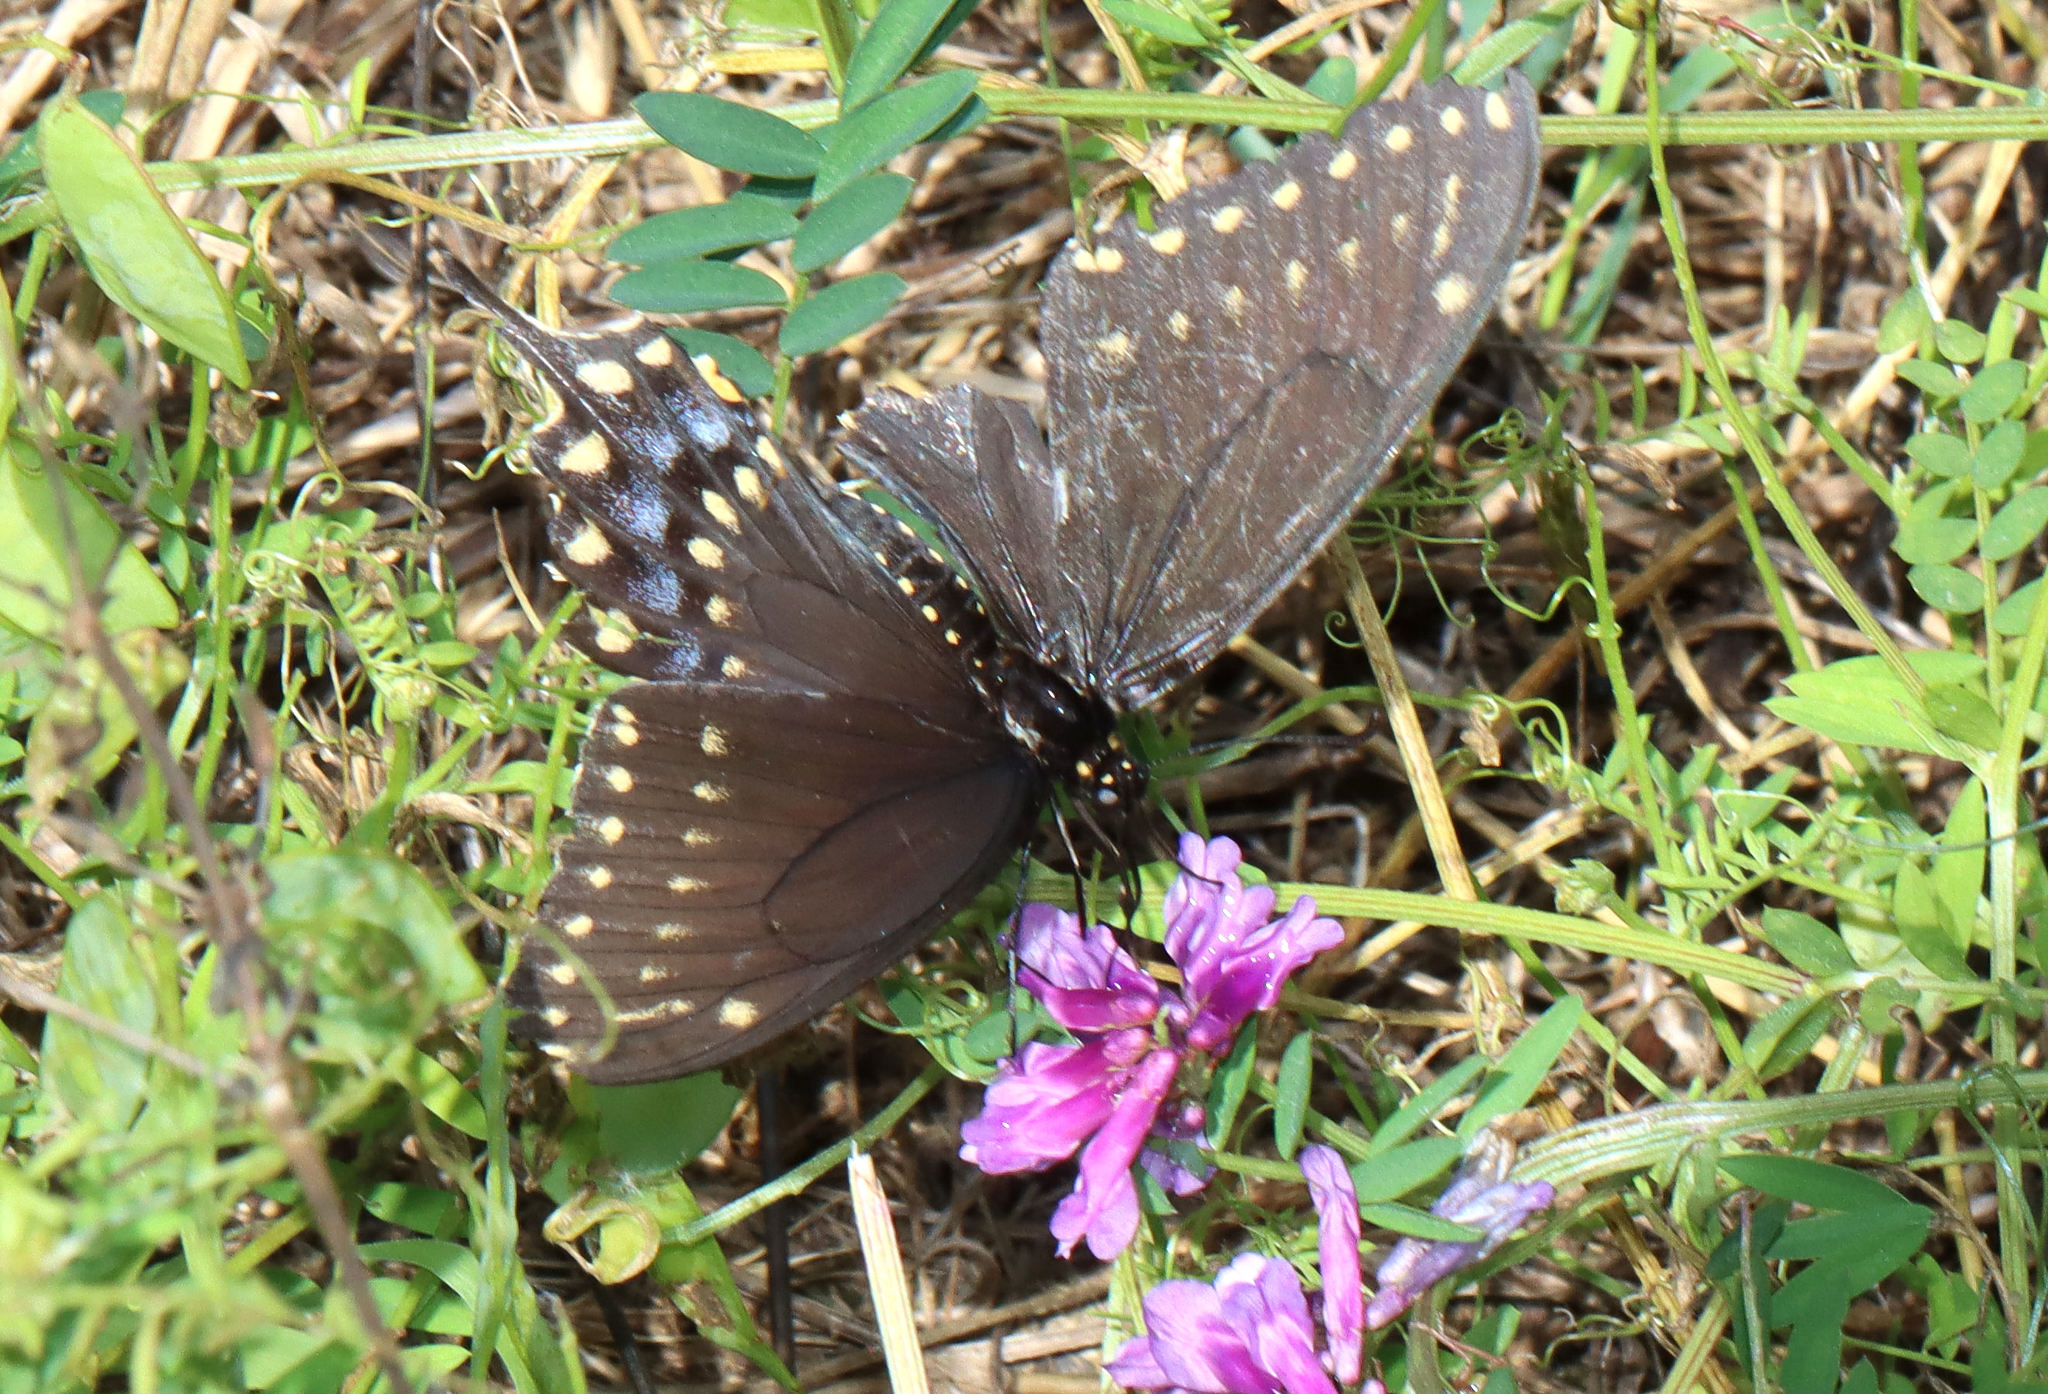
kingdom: Animalia
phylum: Arthropoda
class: Insecta
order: Lepidoptera
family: Papilionidae
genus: Papilio
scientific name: Papilio polyxenes
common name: Black swallowtail
